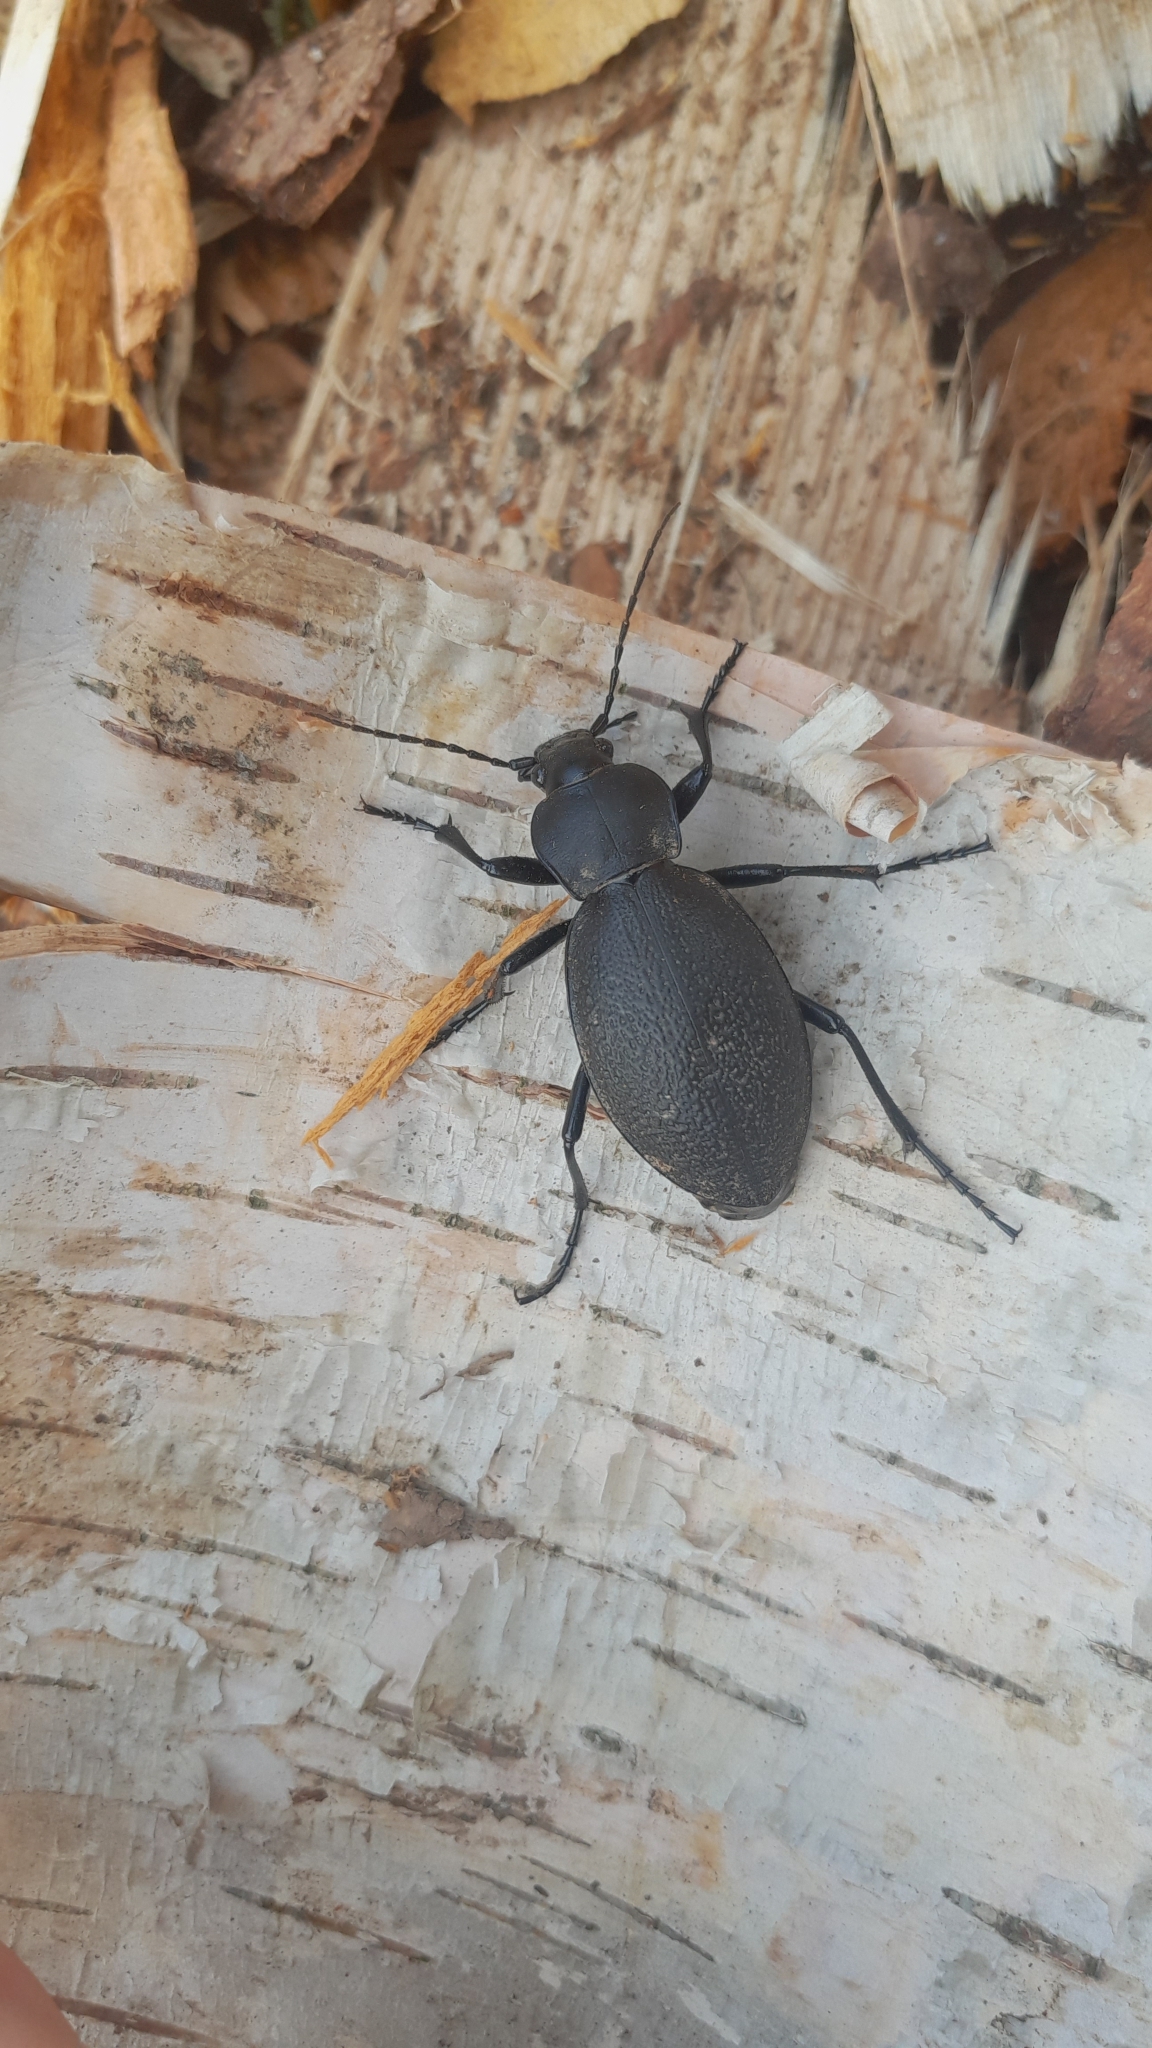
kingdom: Animalia
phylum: Arthropoda
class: Insecta
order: Coleoptera
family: Carabidae
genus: Carabus
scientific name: Carabus coriaceus
